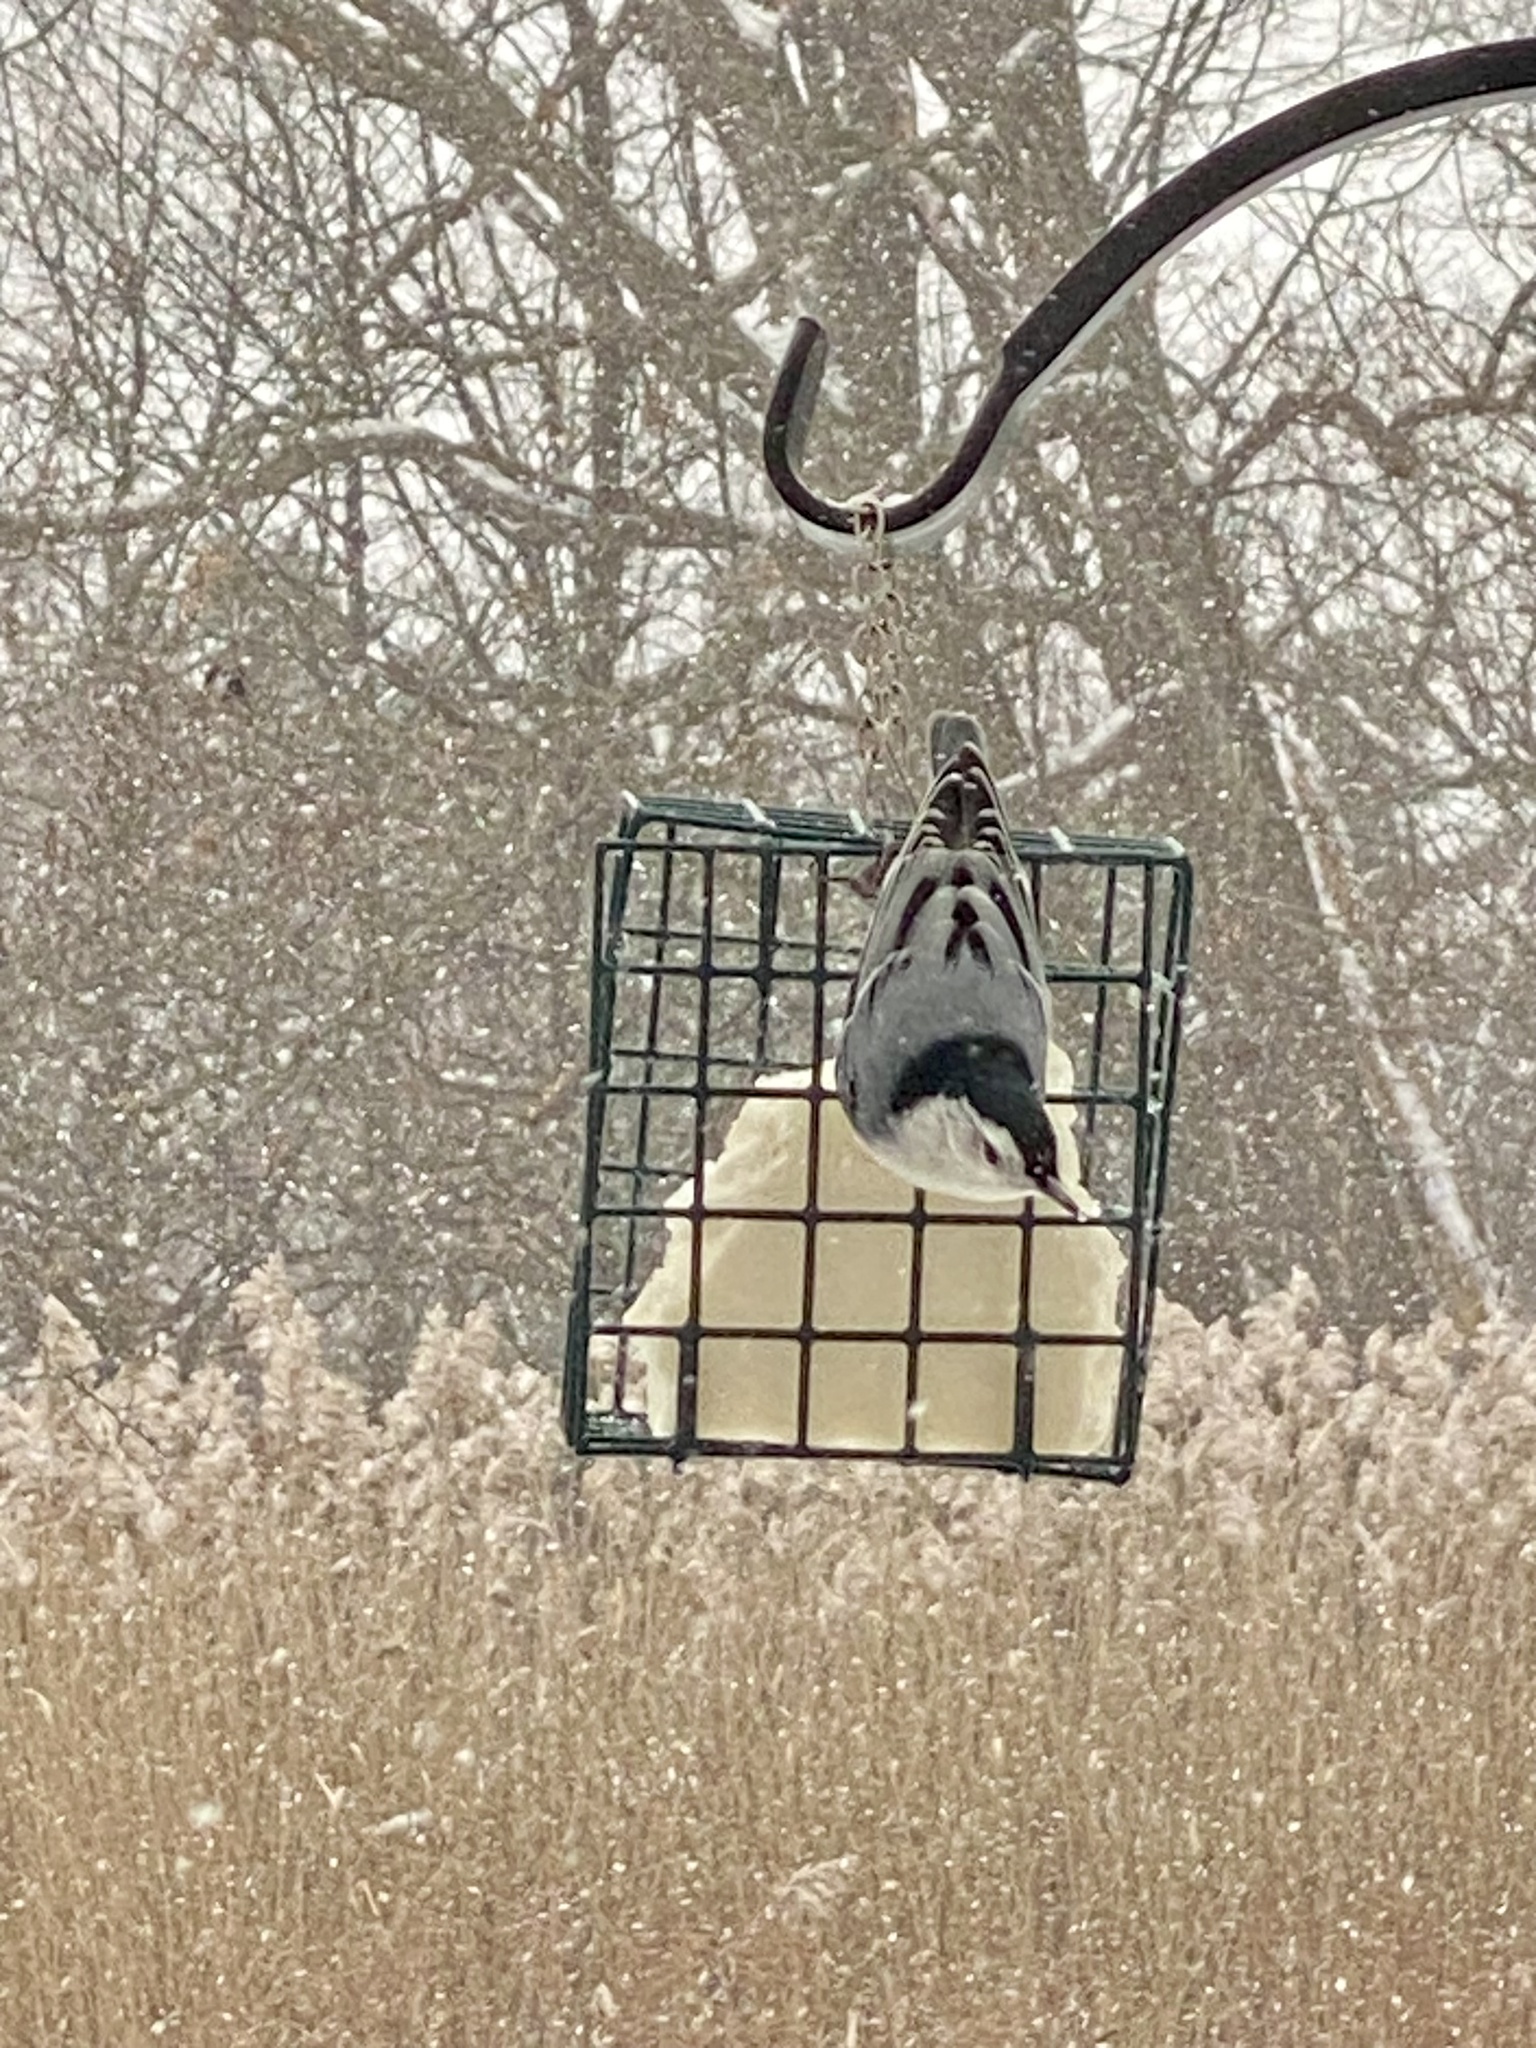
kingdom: Animalia
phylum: Chordata
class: Aves
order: Passeriformes
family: Sittidae
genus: Sitta
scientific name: Sitta carolinensis
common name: White-breasted nuthatch
